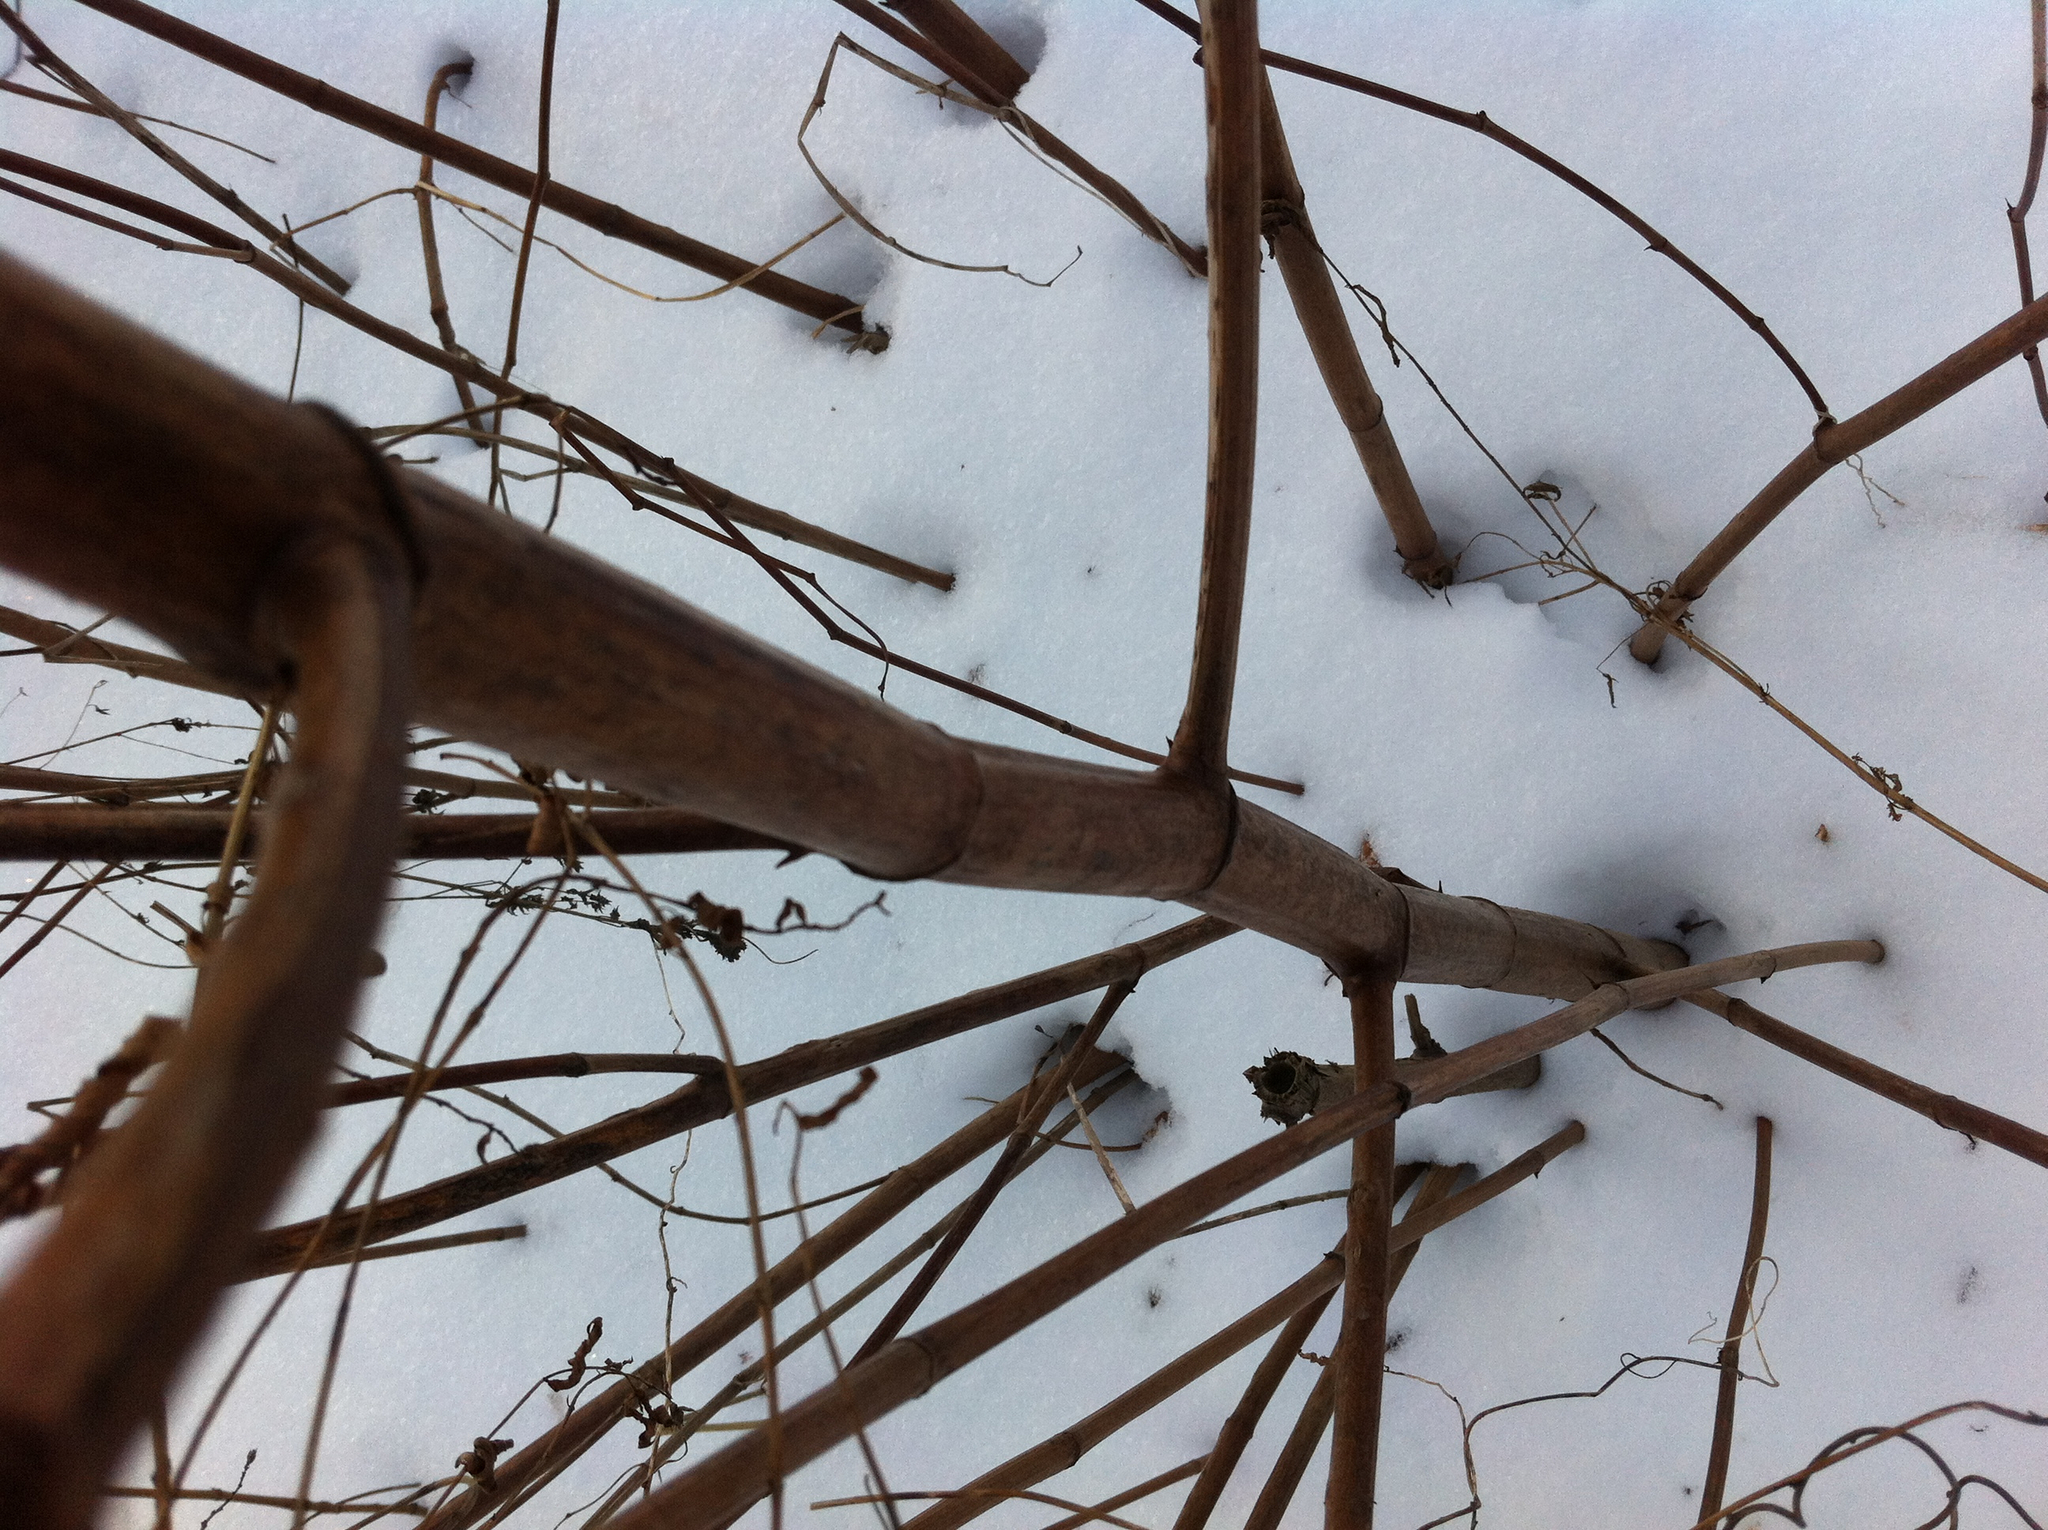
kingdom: Plantae
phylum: Tracheophyta
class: Magnoliopsida
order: Caryophyllales
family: Polygonaceae
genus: Reynoutria
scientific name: Reynoutria japonica
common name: Japanese knotweed
